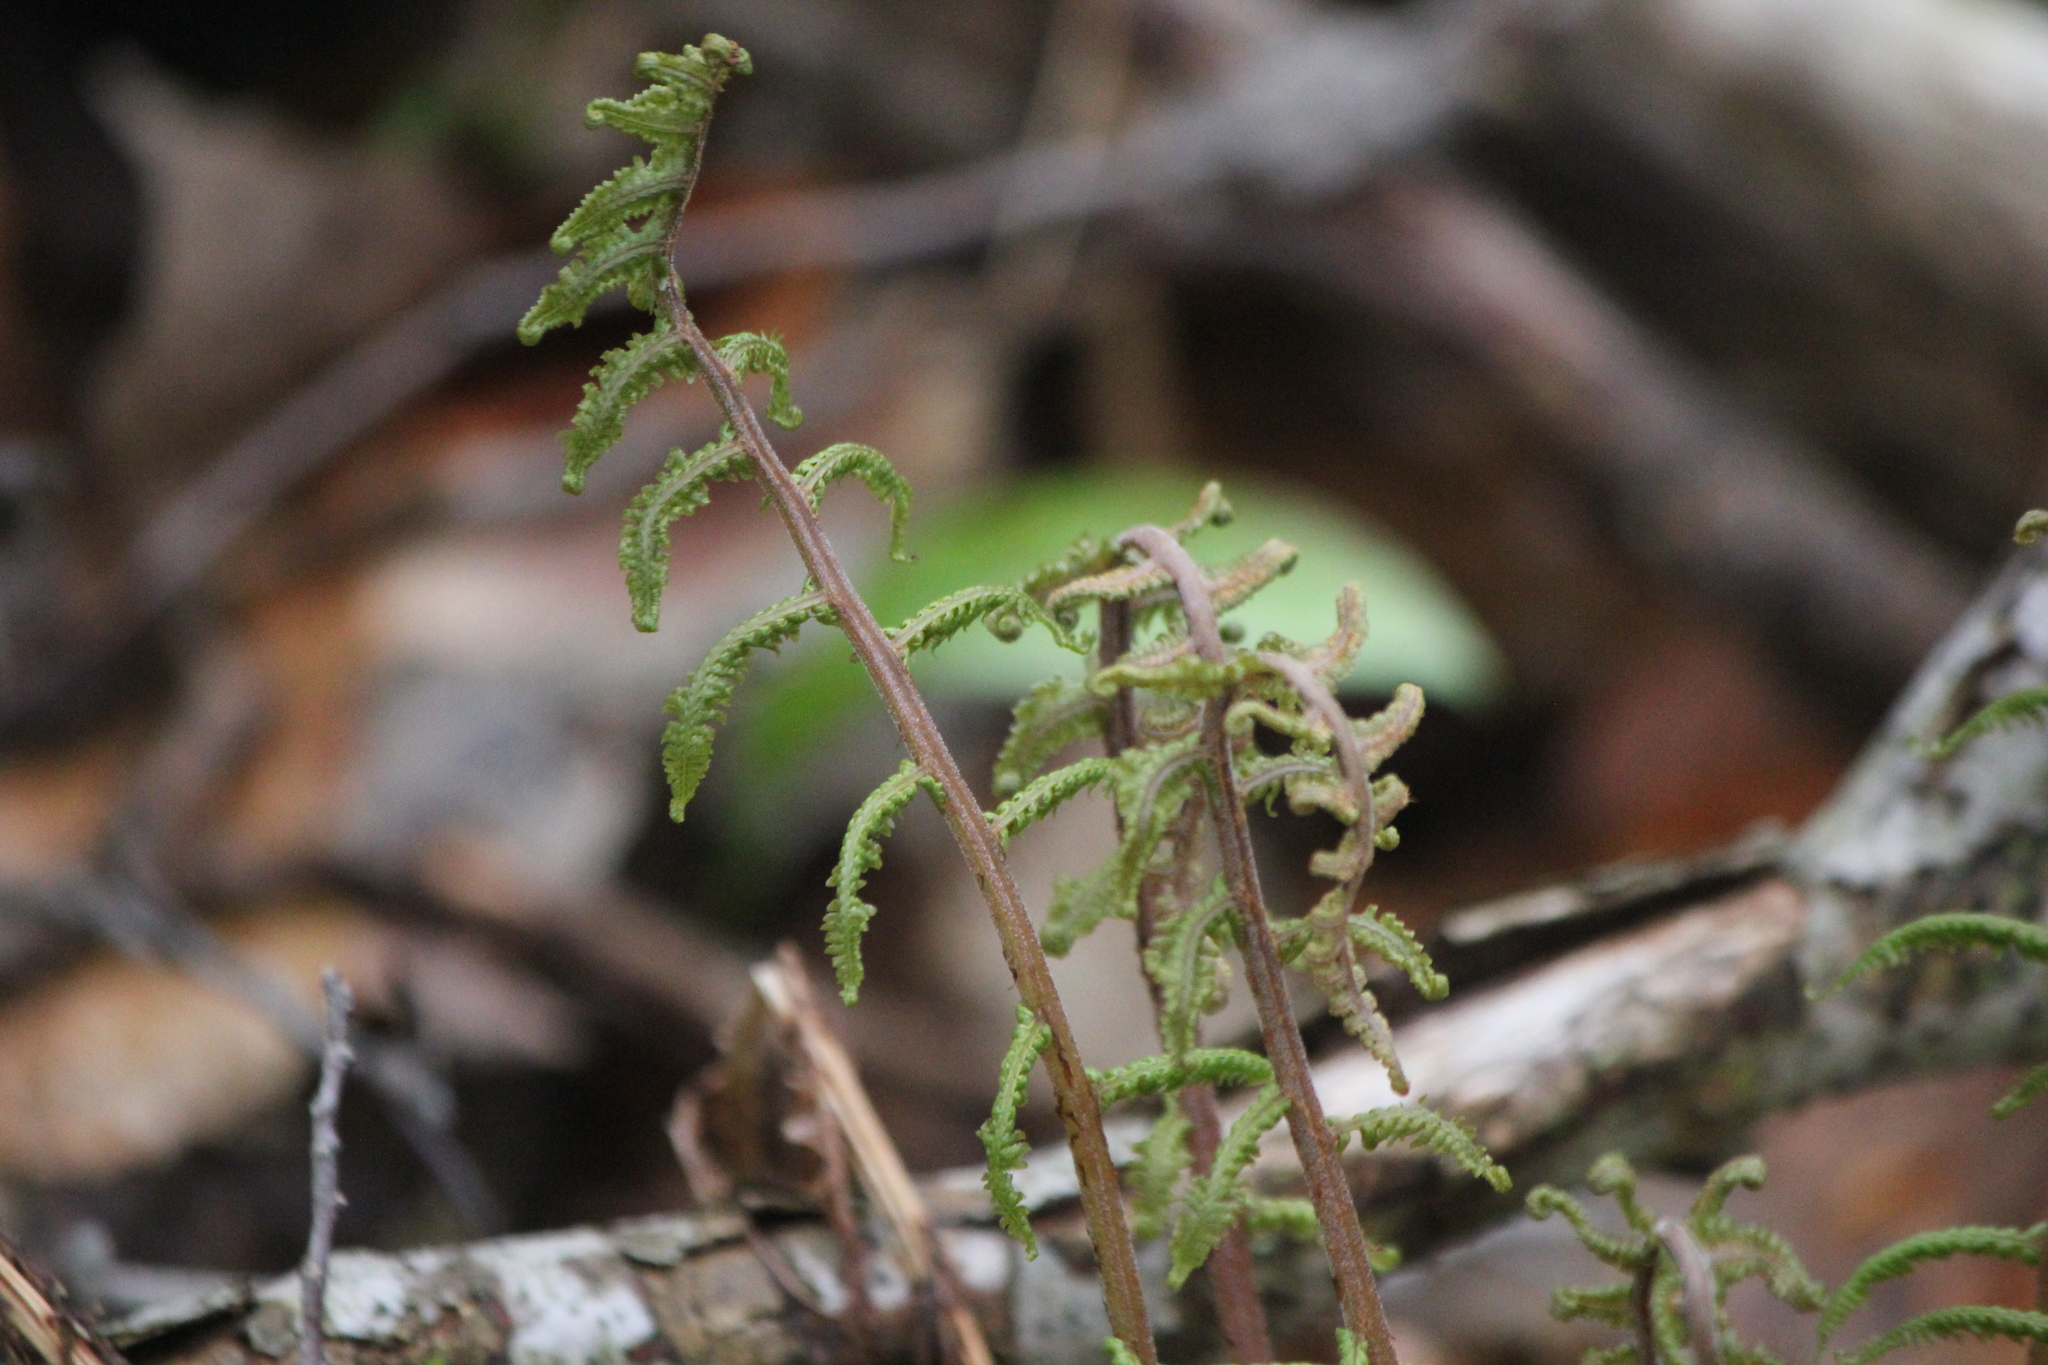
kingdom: Plantae
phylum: Tracheophyta
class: Polypodiopsida
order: Polypodiales
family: Athyriaceae
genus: Athyrium
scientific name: Athyrium angustum
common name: Northern lady fern
